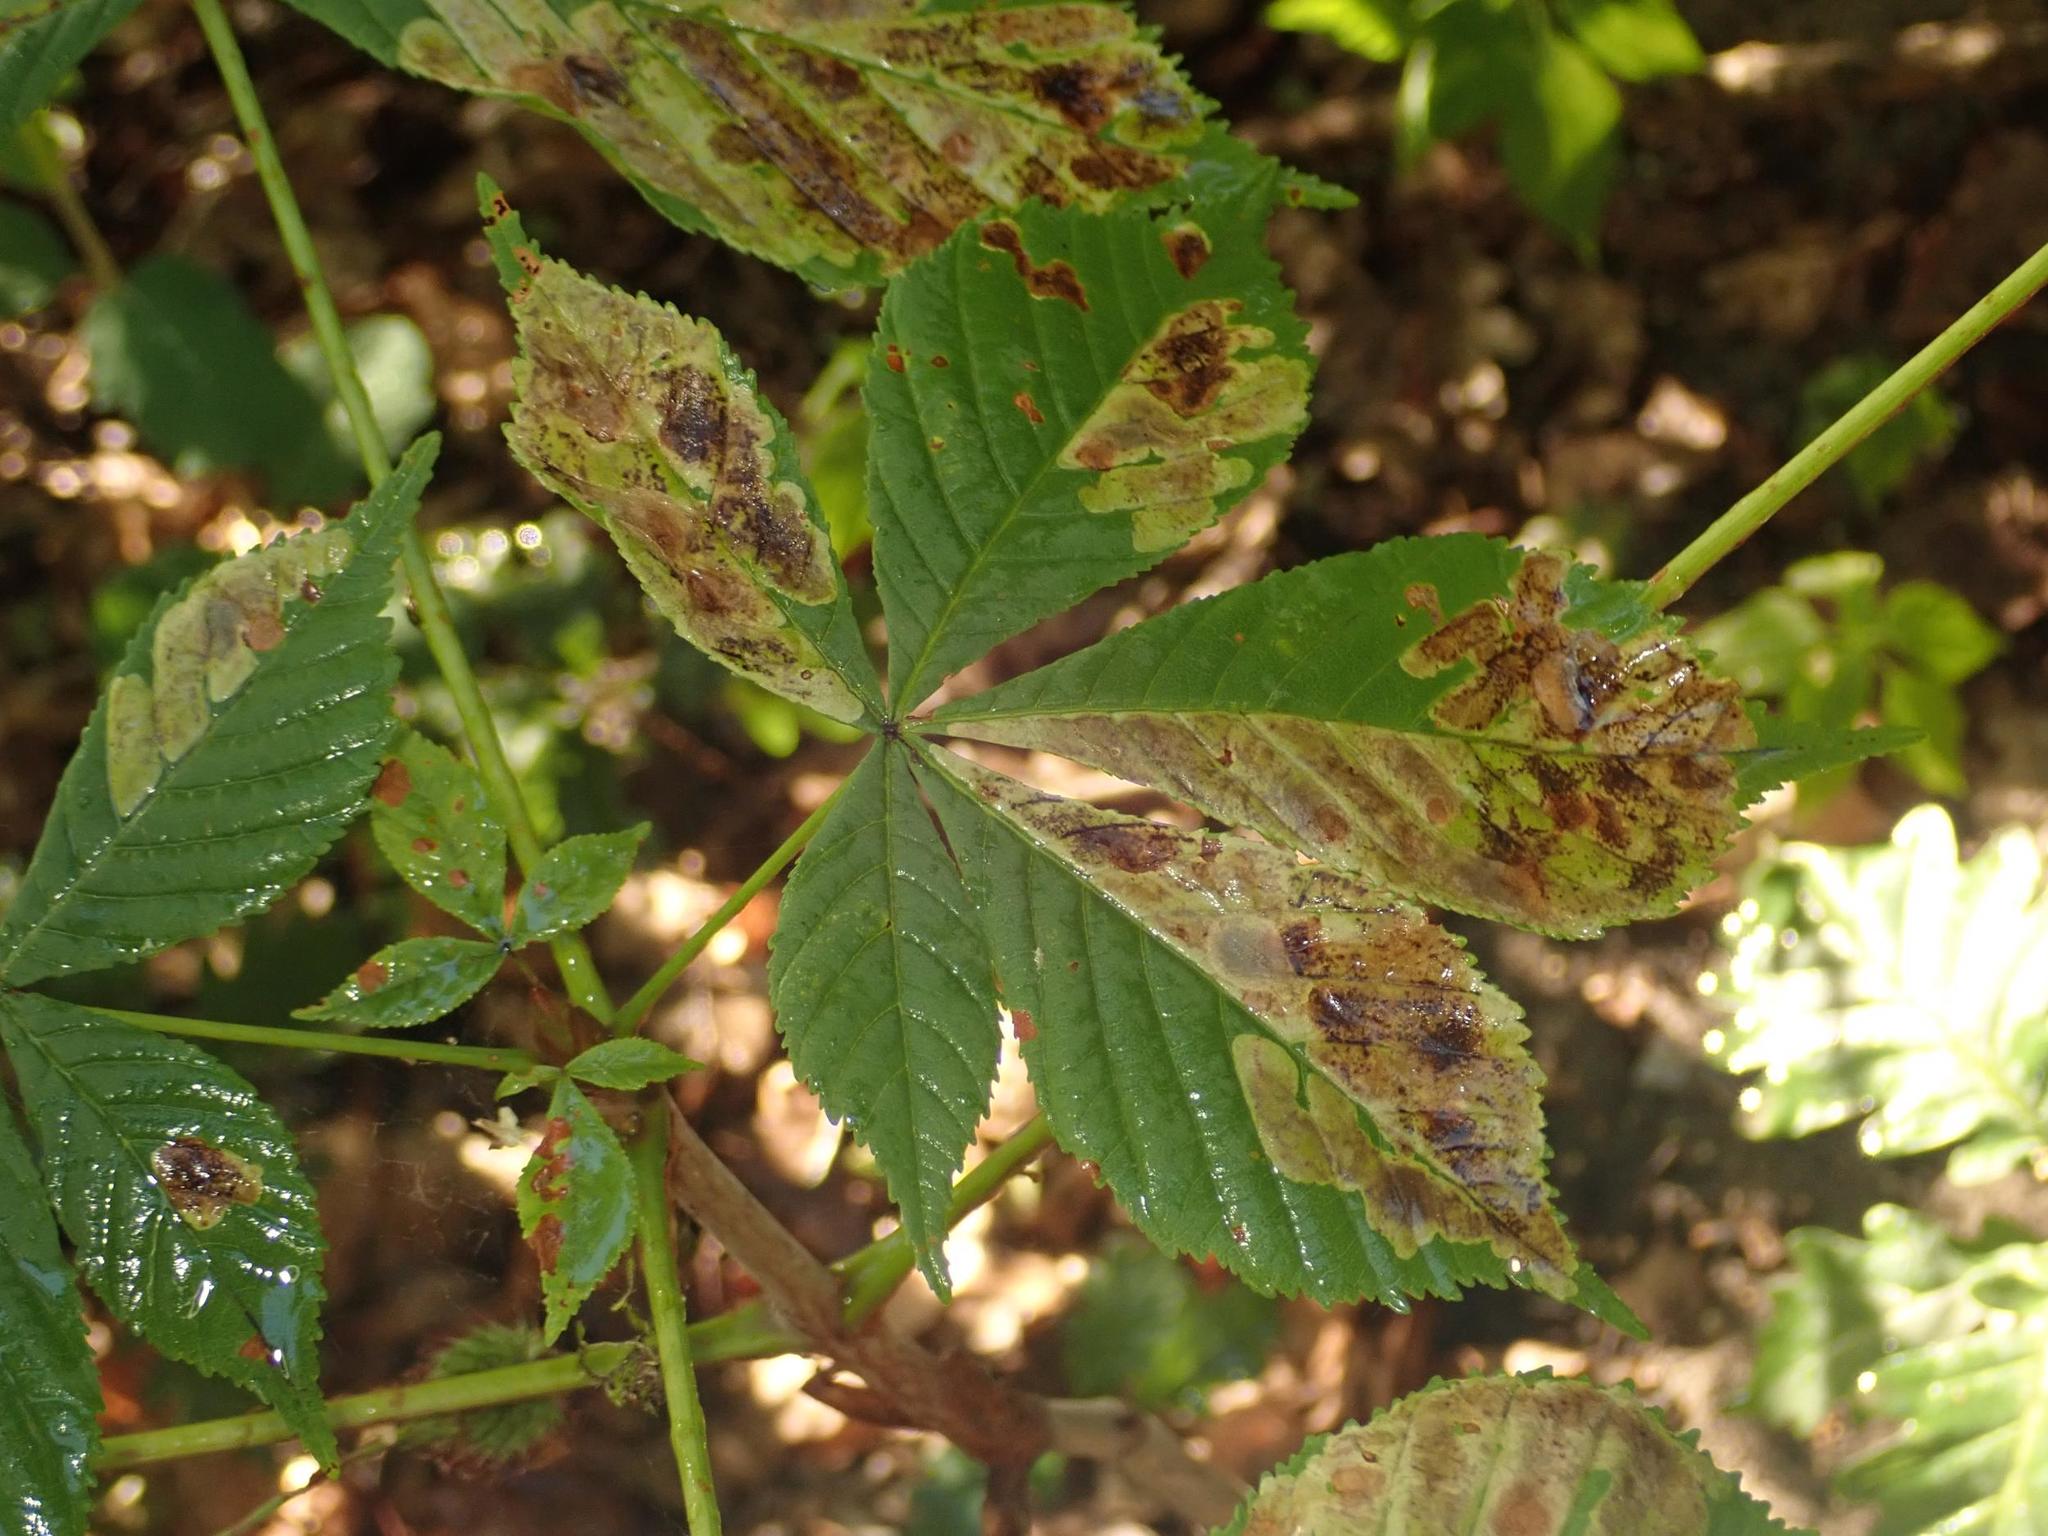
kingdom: Plantae
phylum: Tracheophyta
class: Magnoliopsida
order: Sapindales
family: Sapindaceae
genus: Aesculus
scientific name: Aesculus hippocastanum
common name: Horse-chestnut
